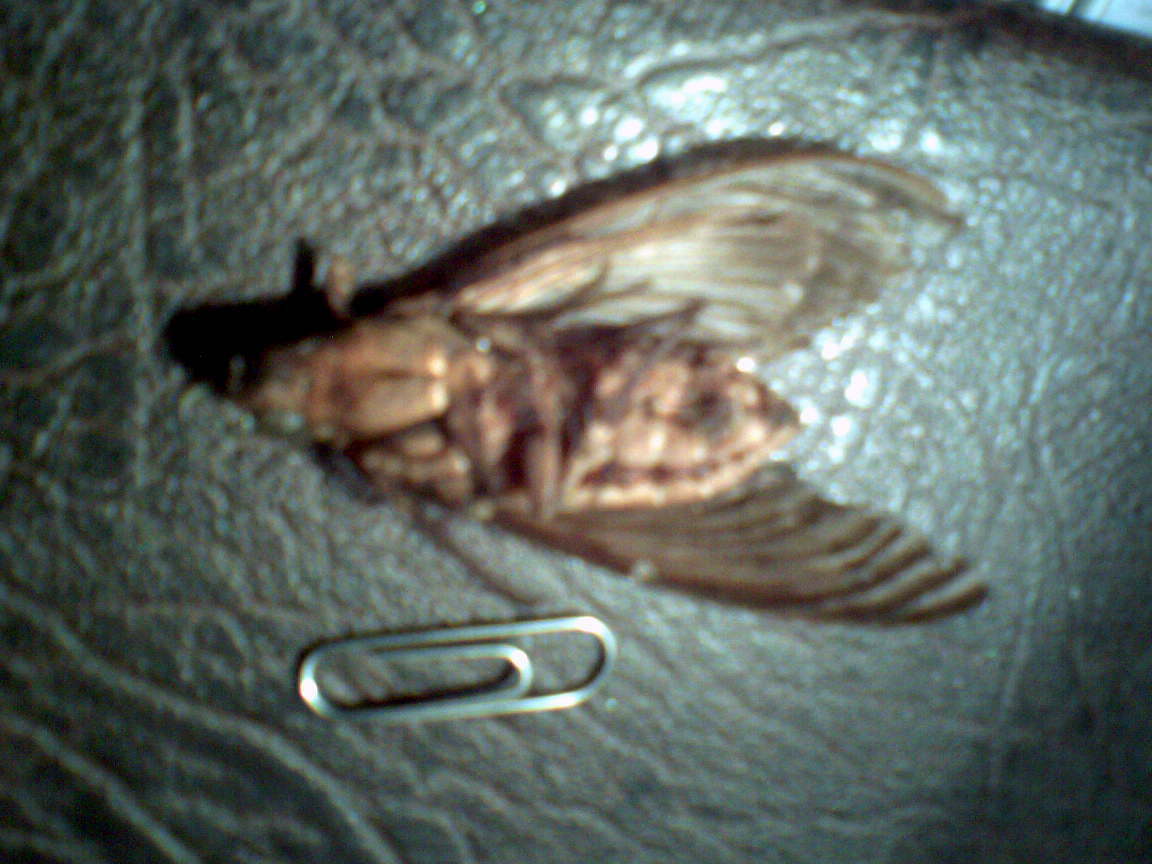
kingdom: Animalia
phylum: Arthropoda
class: Insecta
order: Lepidoptera
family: Sphingidae
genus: Acherontia
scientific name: Acherontia atropos
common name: Death's-head hawk moth
